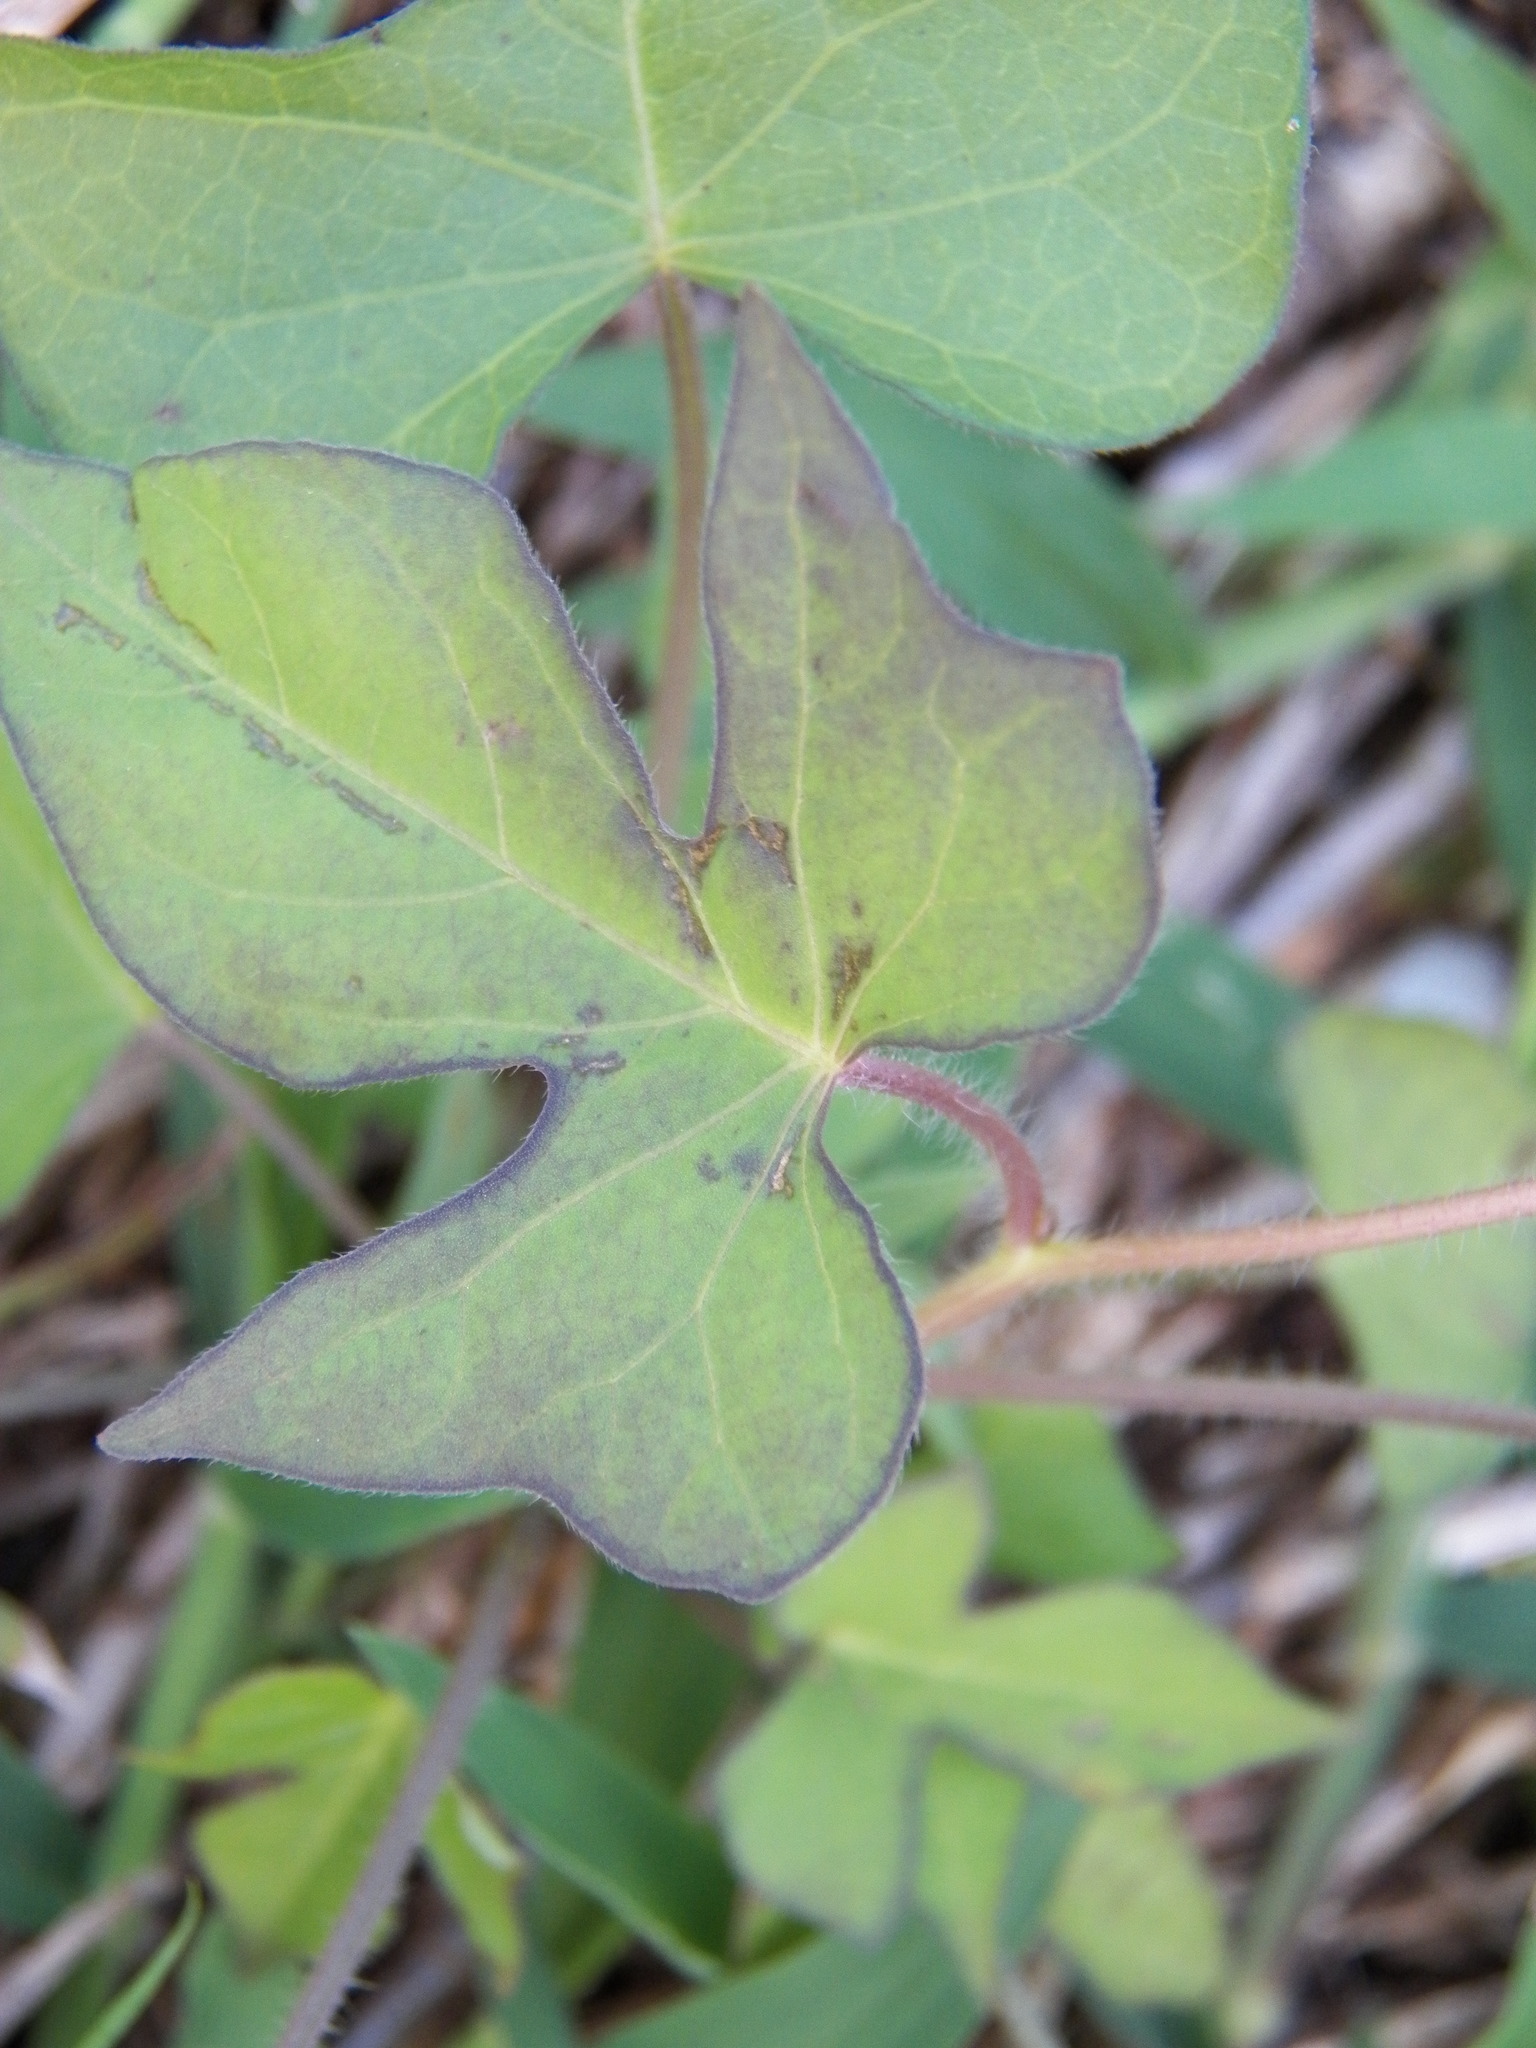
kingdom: Plantae
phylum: Tracheophyta
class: Magnoliopsida
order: Solanales
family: Convolvulaceae
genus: Ipomoea
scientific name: Ipomoea cordatotriloba
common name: Cotton morning glory
